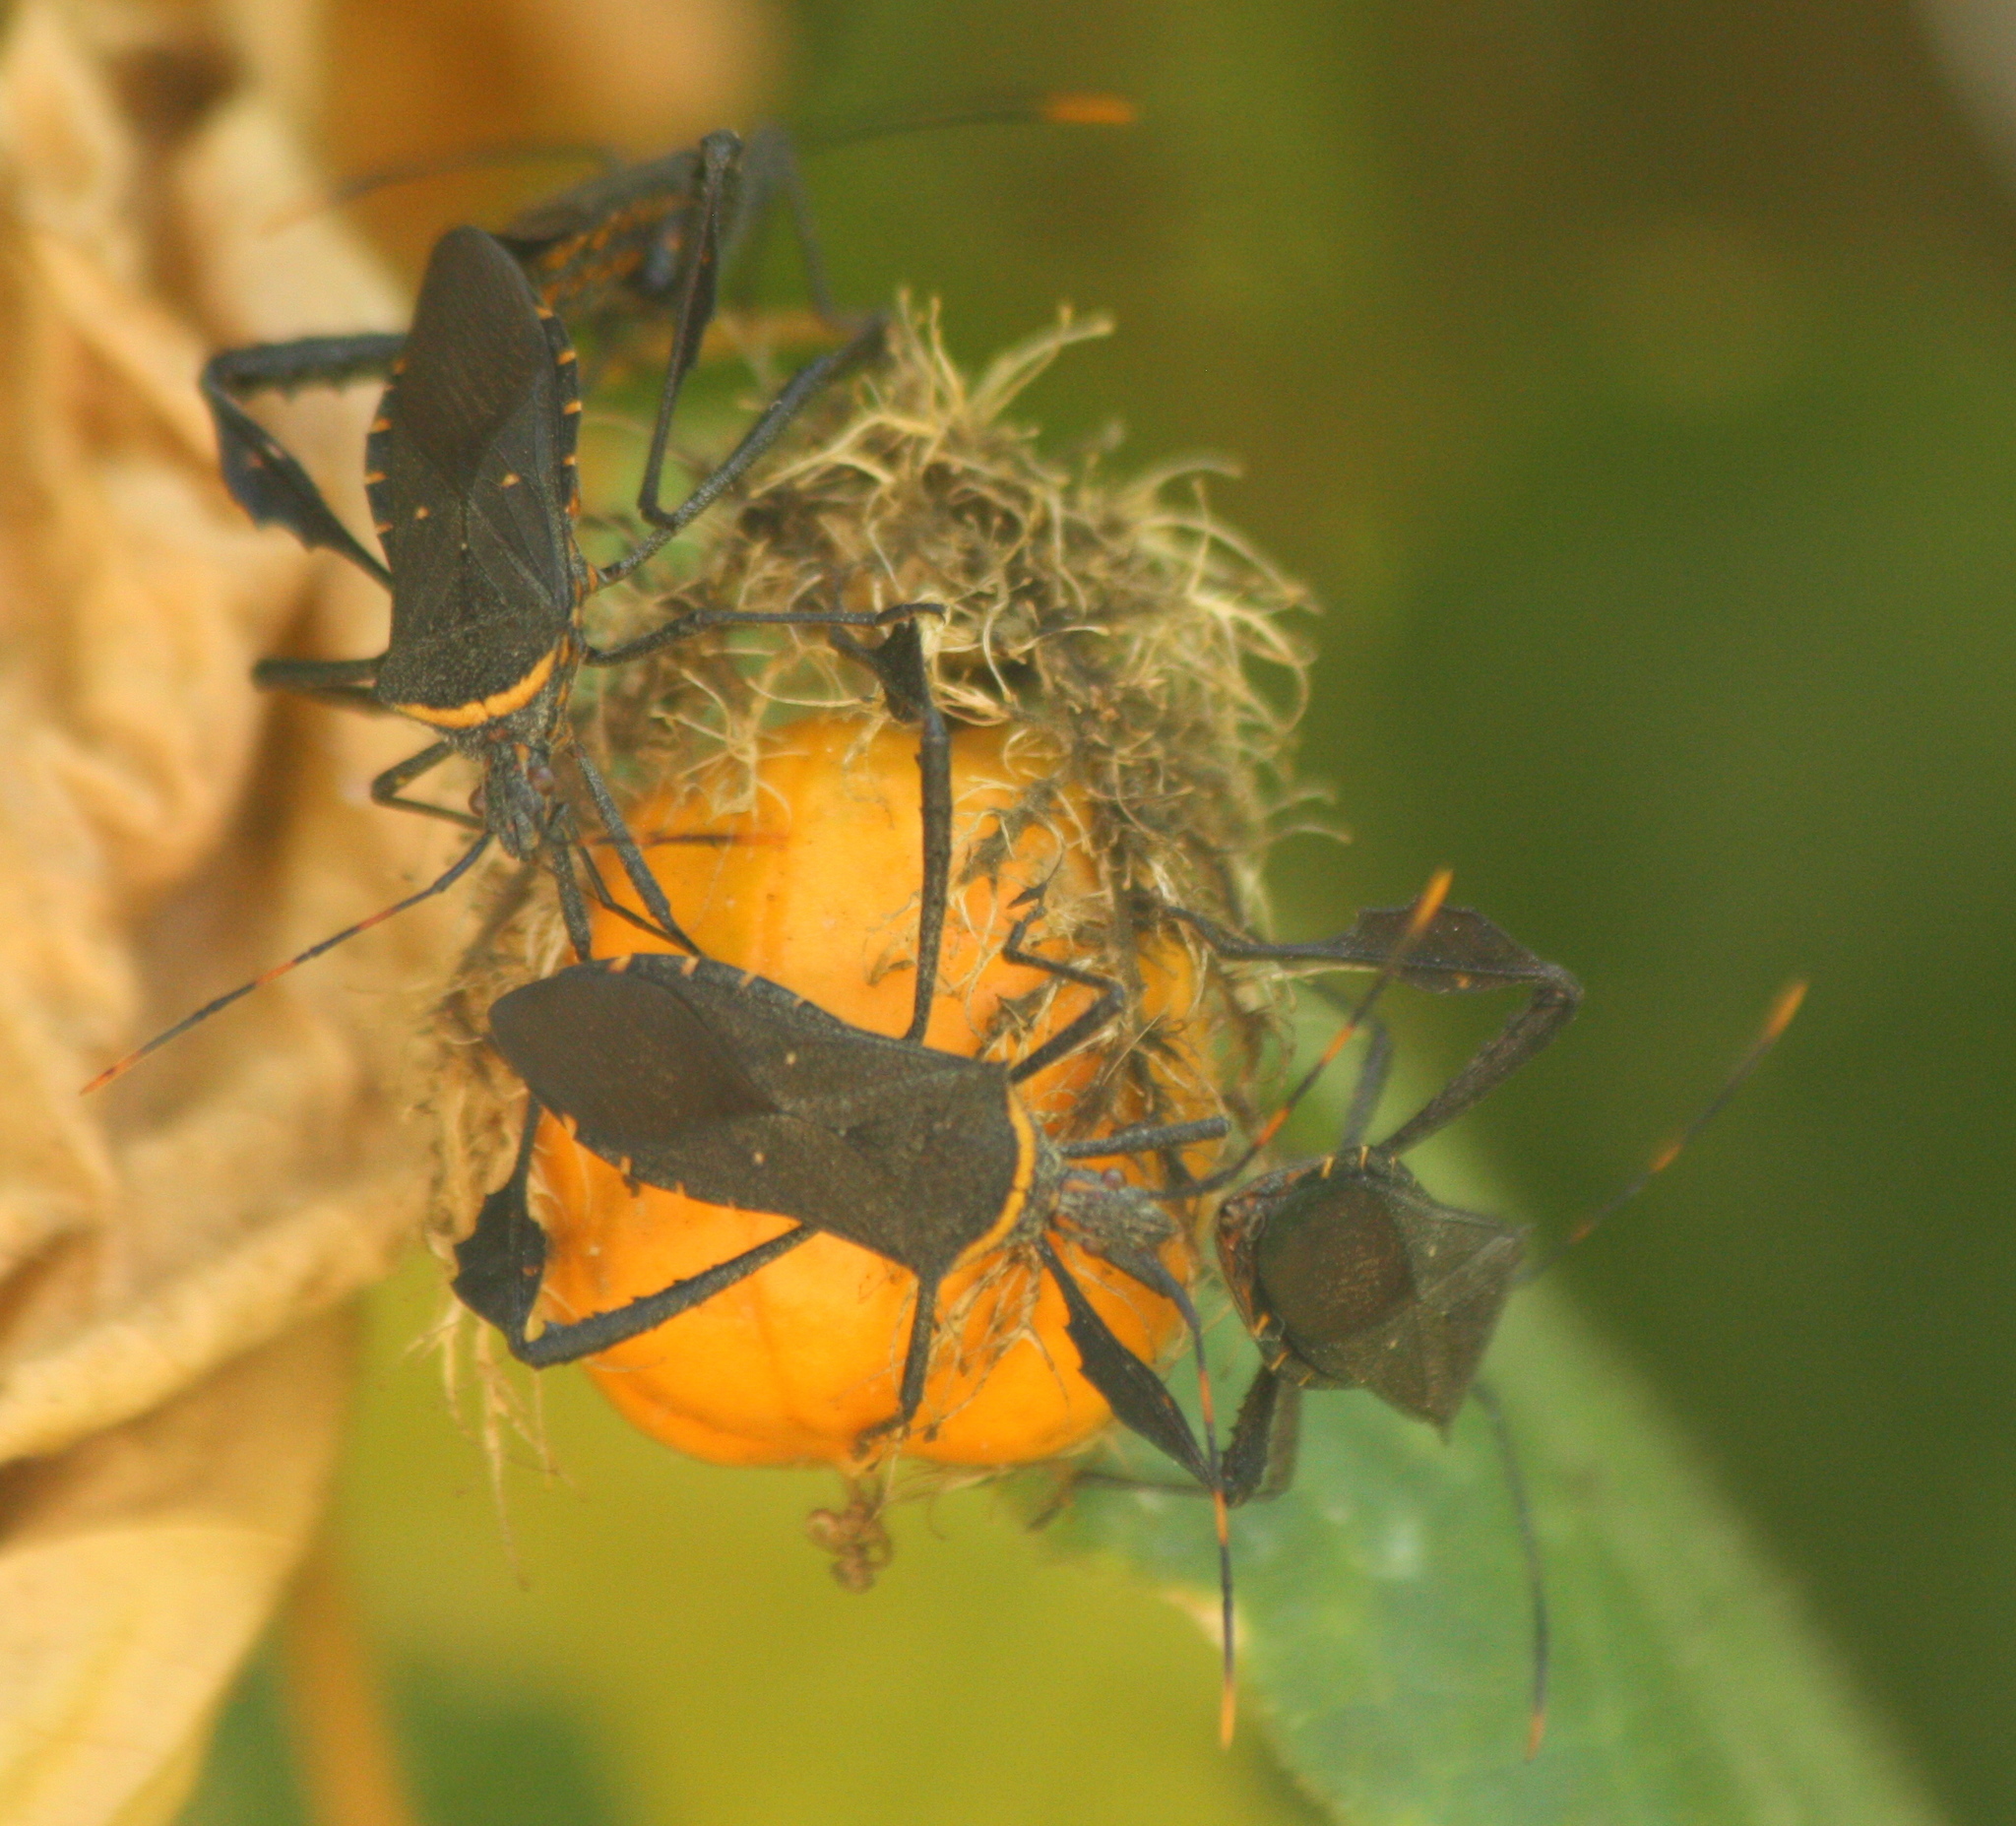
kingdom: Animalia
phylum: Arthropoda
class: Insecta
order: Hemiptera
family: Coreidae
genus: Leptoglossus
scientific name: Leptoglossus gonagra
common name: Citron bug
